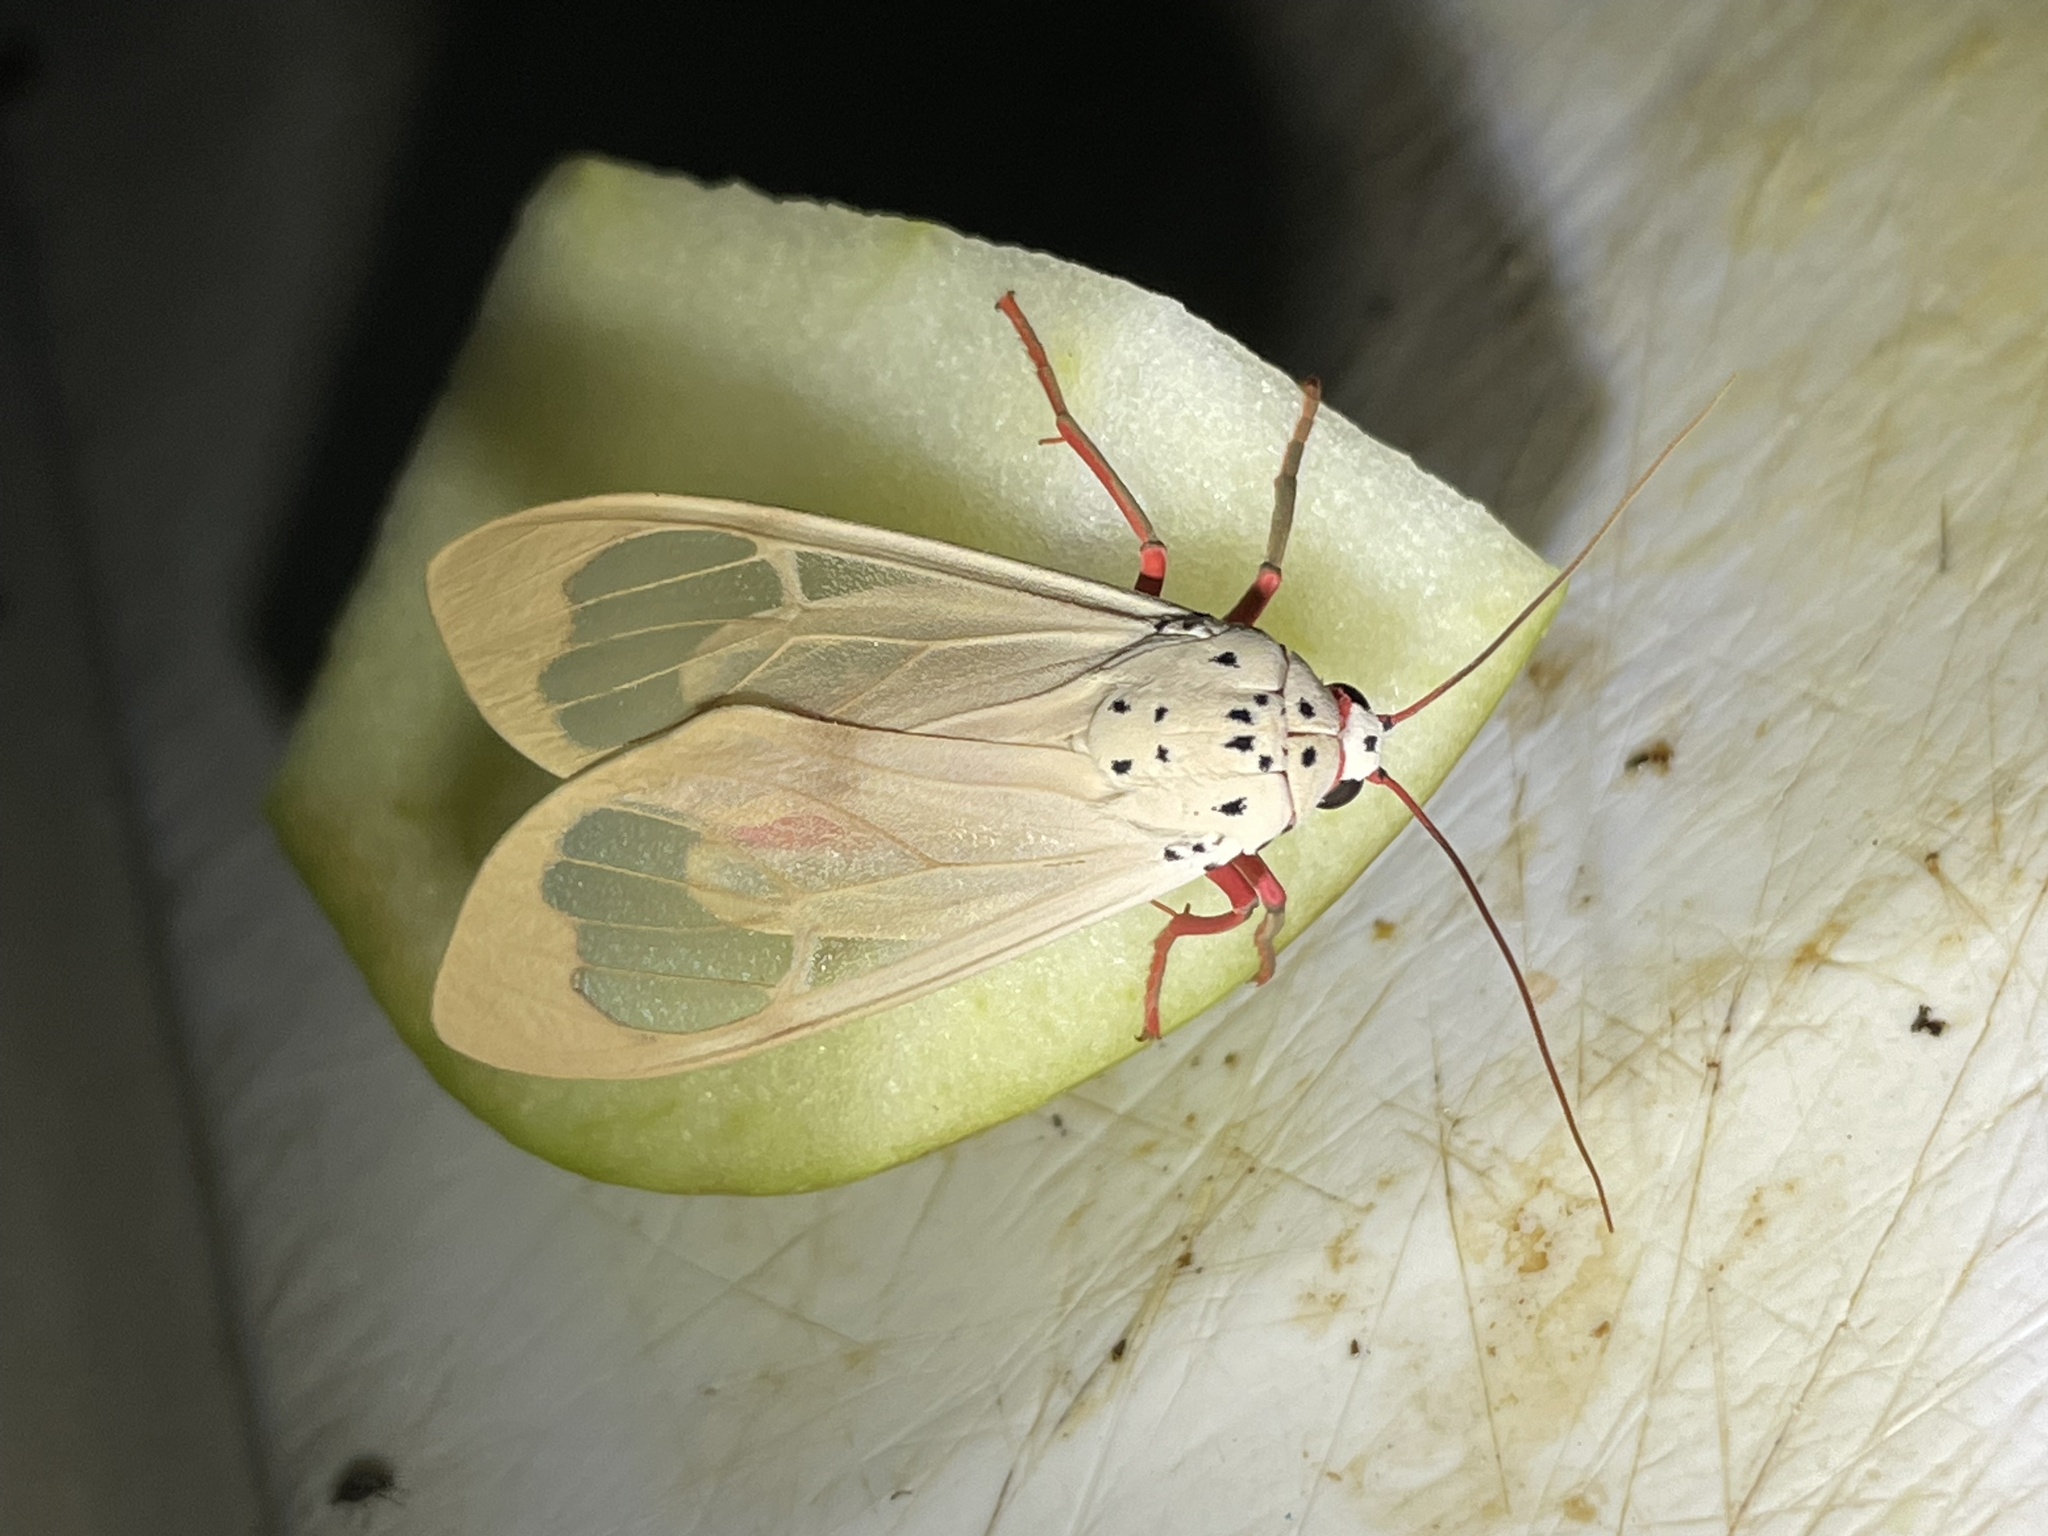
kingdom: Animalia
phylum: Arthropoda
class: Insecta
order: Lepidoptera
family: Erebidae
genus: Amerila
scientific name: Amerila bauri
